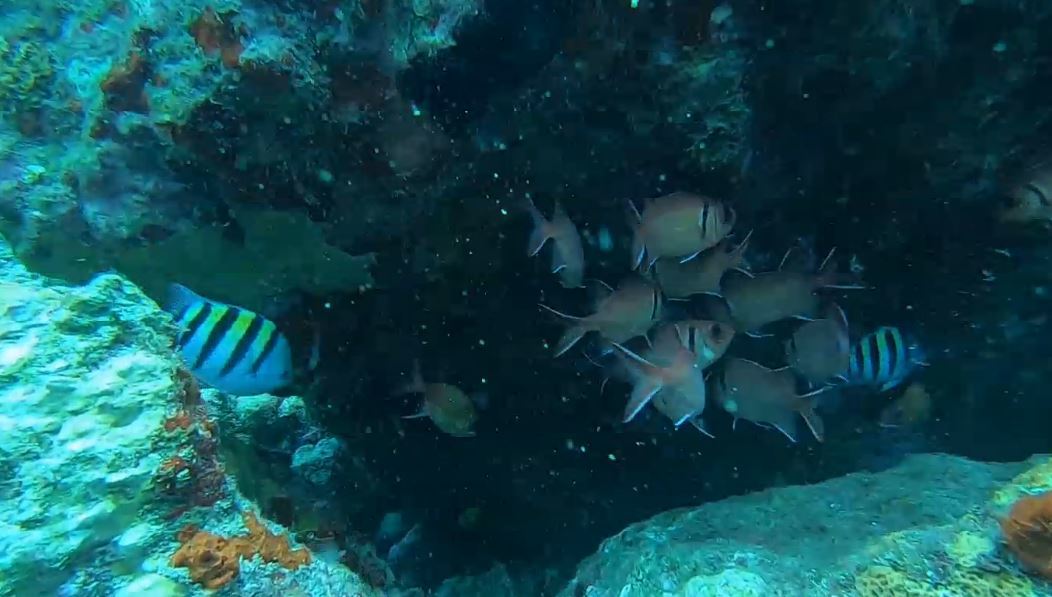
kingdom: Animalia
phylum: Chordata
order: Perciformes
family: Pomacentridae
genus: Abudefduf
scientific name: Abudefduf saxatilis
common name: Sergeant major
